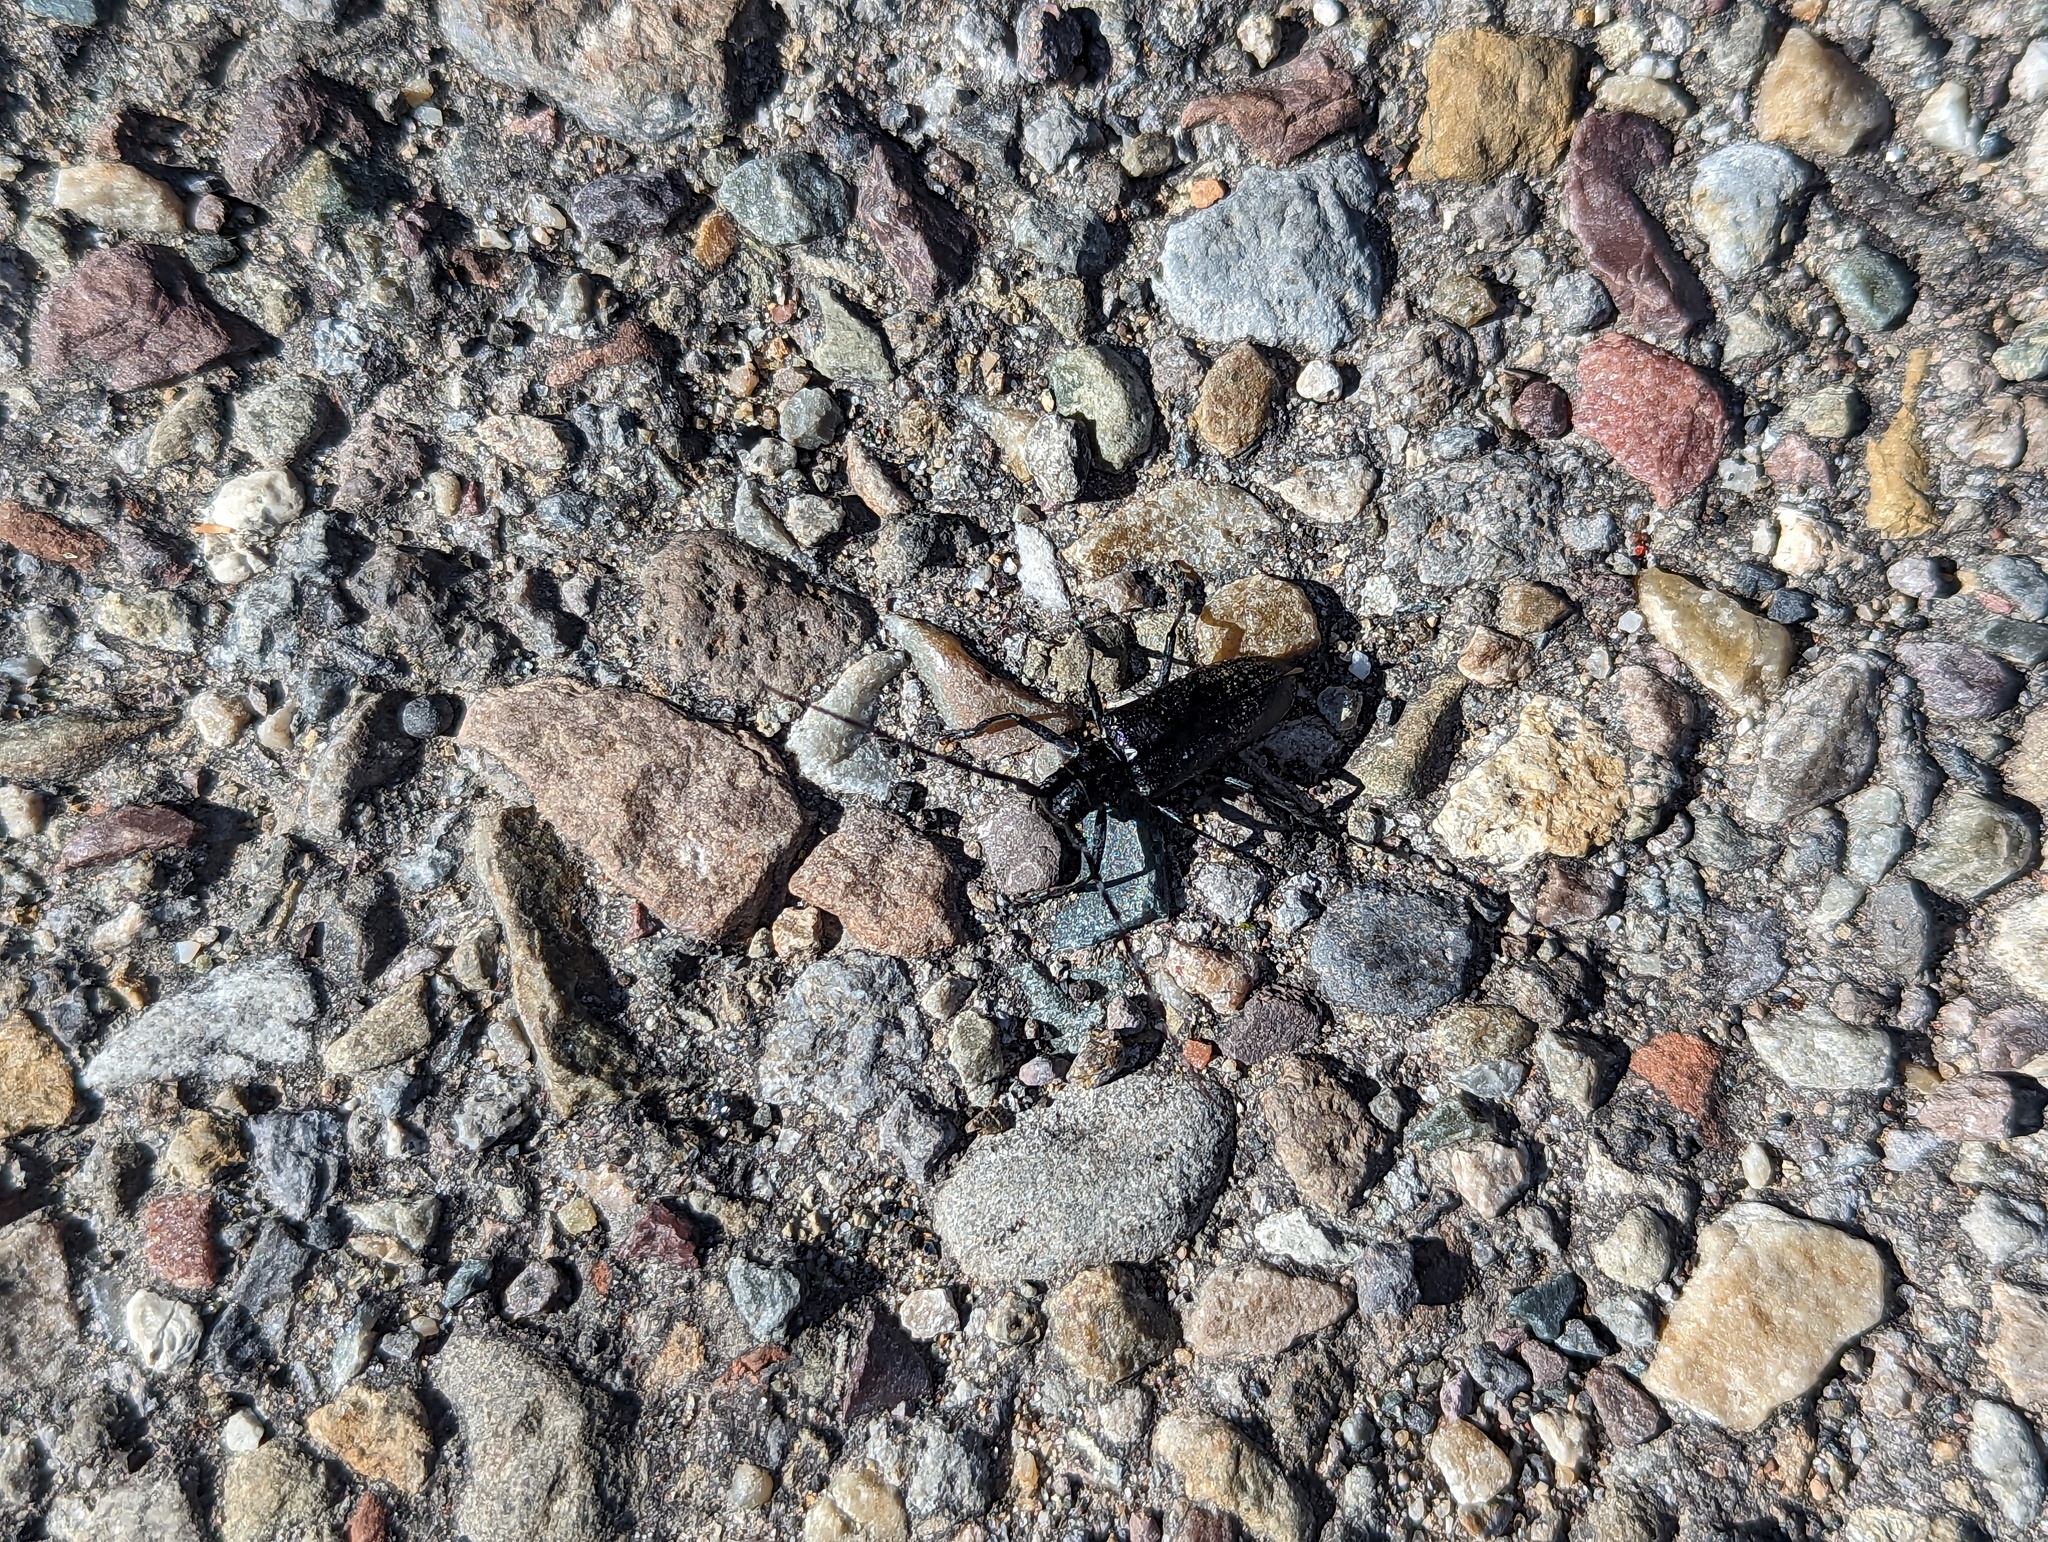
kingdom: Animalia
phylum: Arthropoda
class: Insecta
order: Coleoptera
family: Cerambycidae
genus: Monochamus
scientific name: Monochamus scutellatus
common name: White-spotted sawyer beetle
